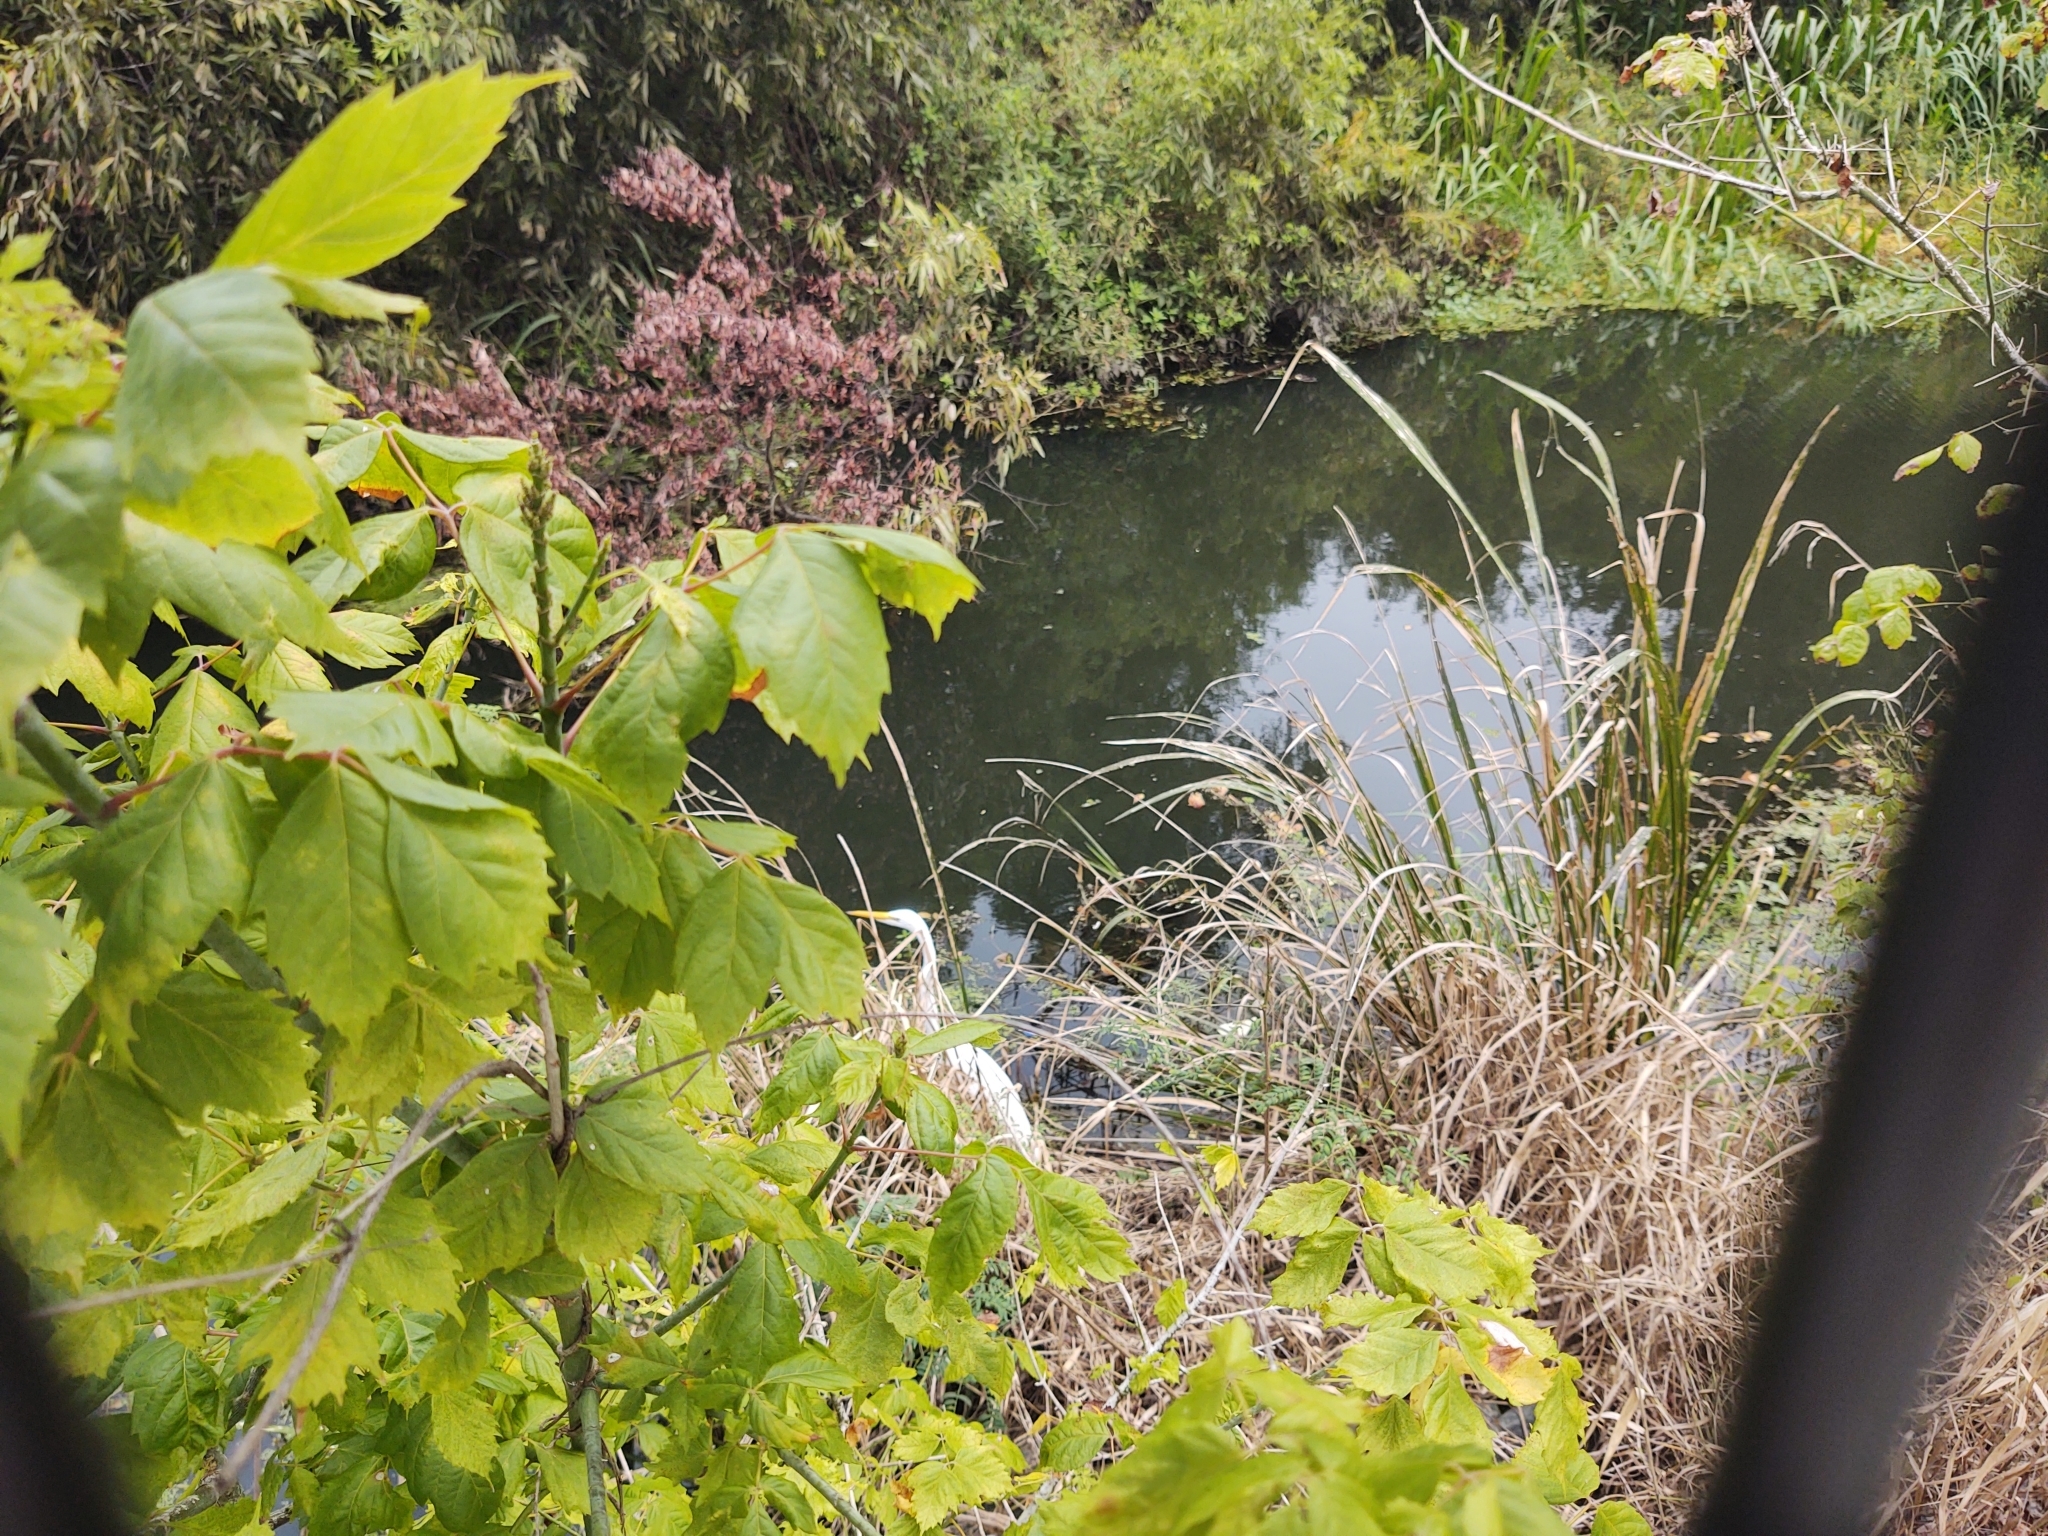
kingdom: Animalia
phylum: Chordata
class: Aves
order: Pelecaniformes
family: Ardeidae
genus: Ardea
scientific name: Ardea alba
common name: Great egret
